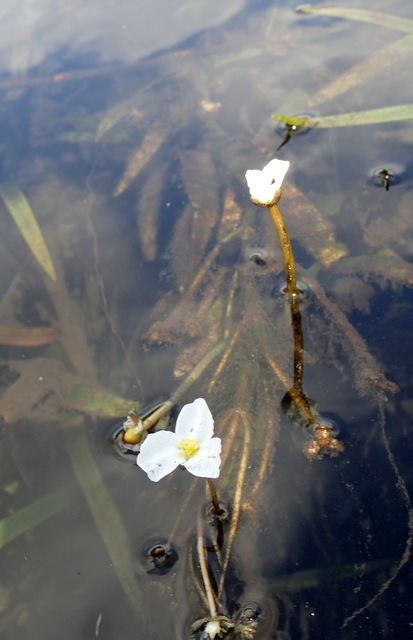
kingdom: Plantae
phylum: Tracheophyta
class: Liliopsida
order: Alismatales
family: Alismataceae
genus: Sagittaria
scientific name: Sagittaria kurziana
